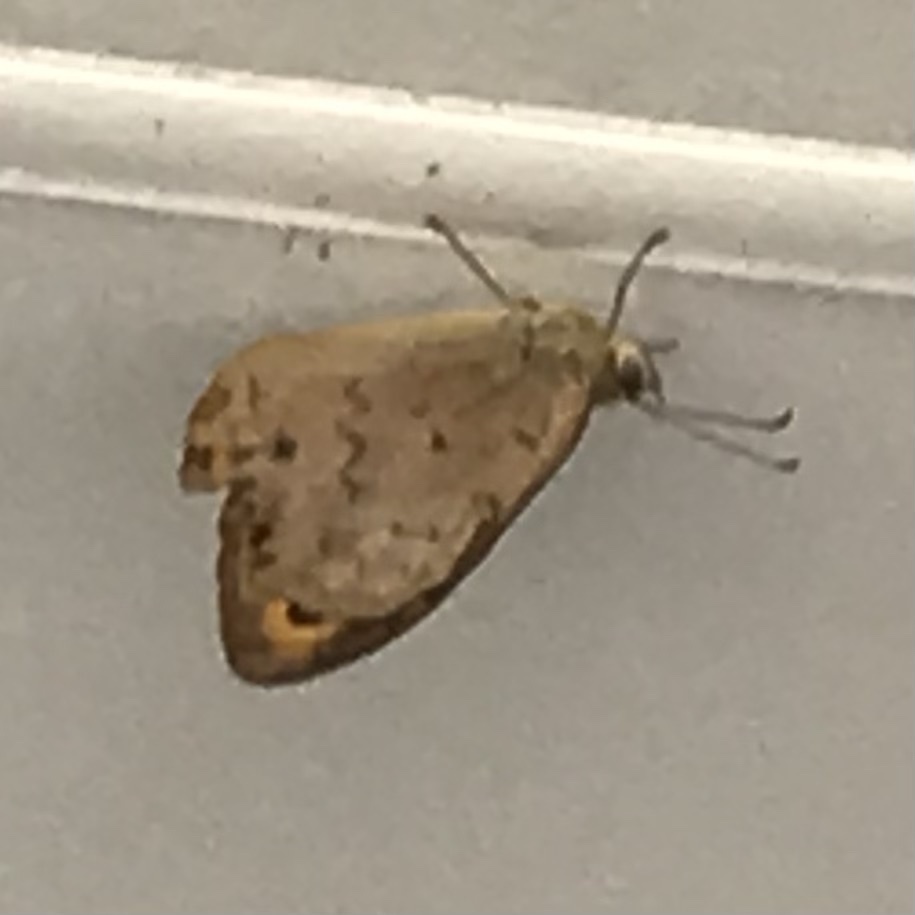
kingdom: Animalia
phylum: Arthropoda
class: Insecta
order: Lepidoptera
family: Nymphalidae
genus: Heteronympha
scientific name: Heteronympha merope
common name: Common brown
